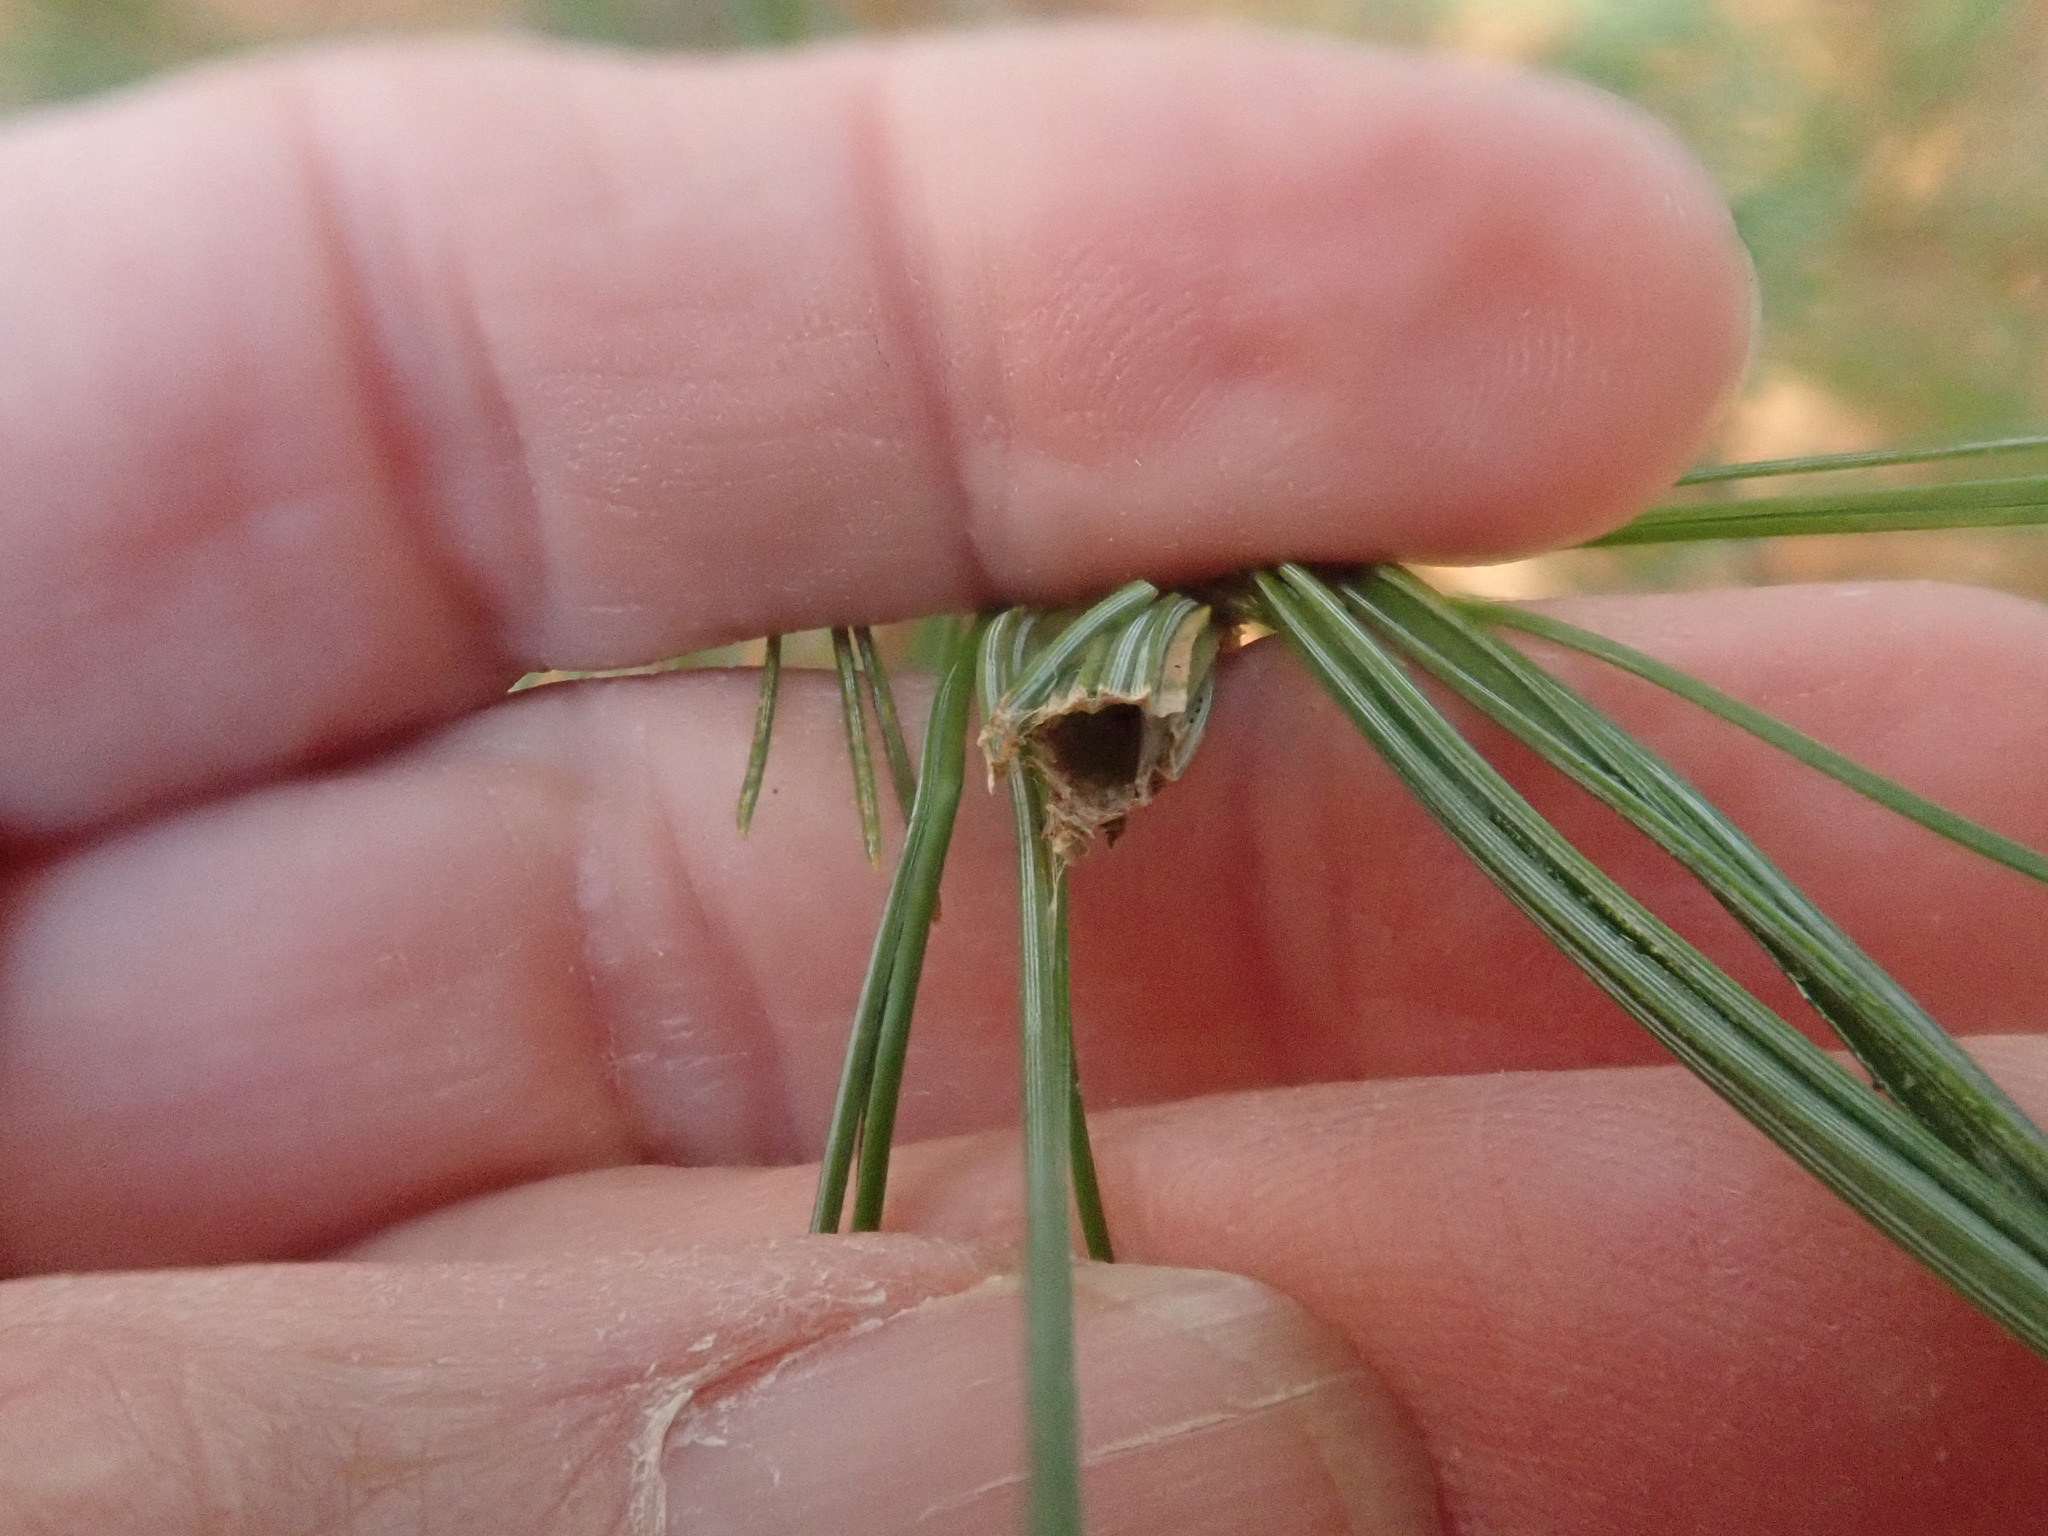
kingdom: Animalia
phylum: Arthropoda
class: Insecta
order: Lepidoptera
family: Tortricidae
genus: Argyrotaenia
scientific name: Argyrotaenia pinatubana
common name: Pine tube moth
